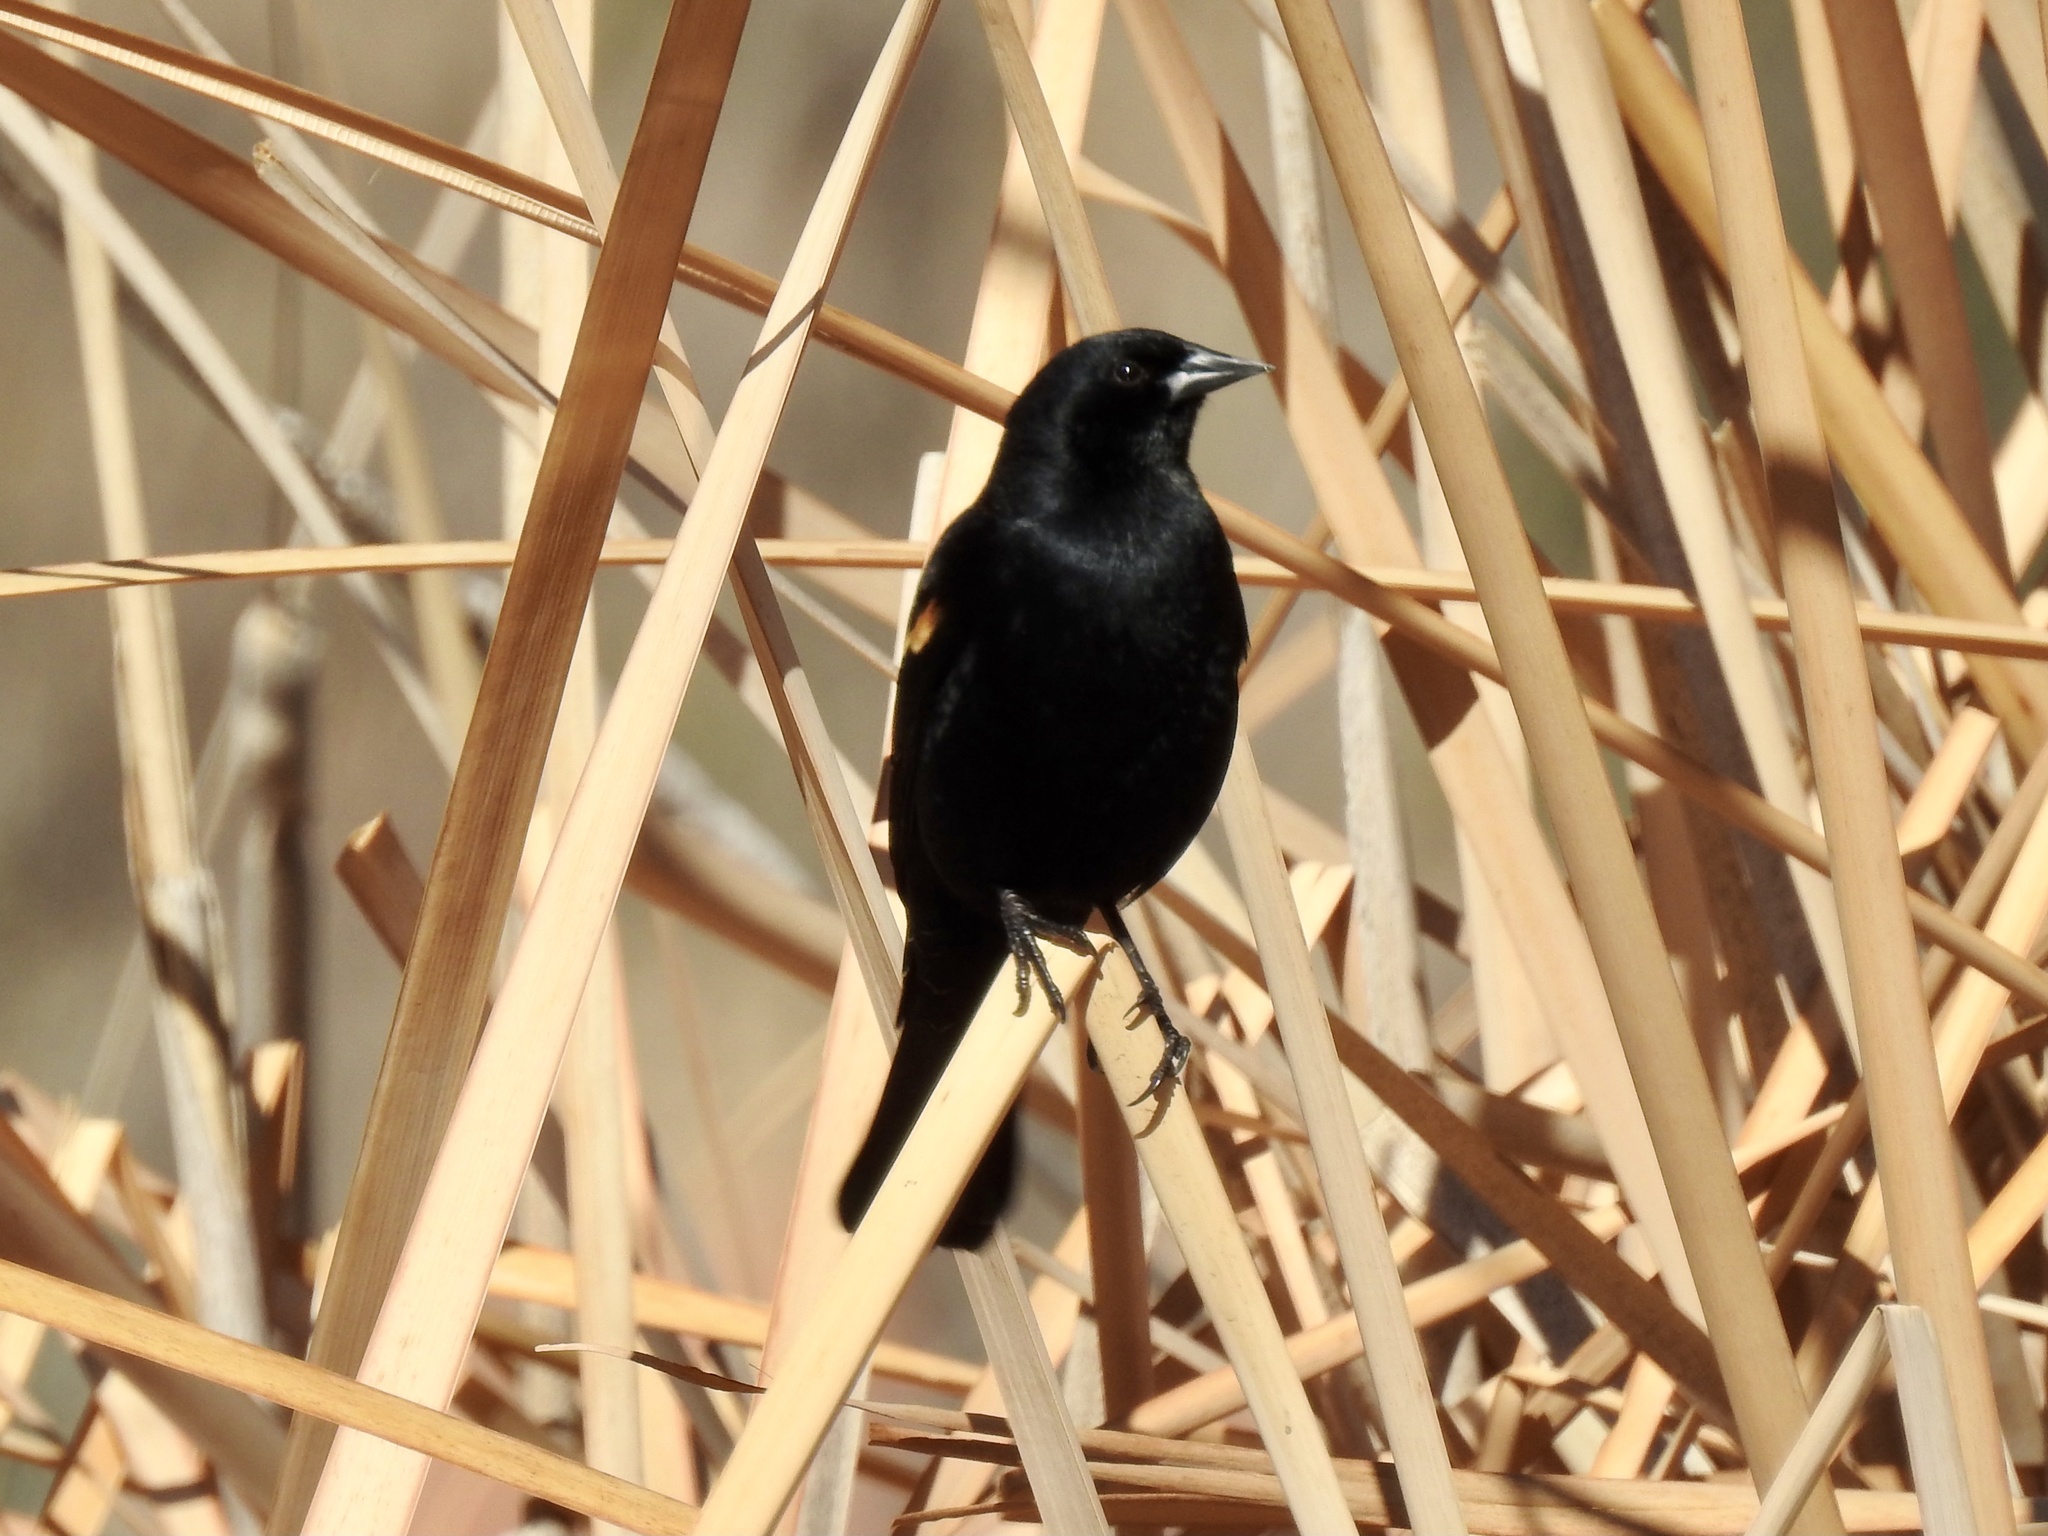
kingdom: Animalia
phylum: Chordata
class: Aves
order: Passeriformes
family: Icteridae
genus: Agelaius
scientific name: Agelaius phoeniceus
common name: Red-winged blackbird
